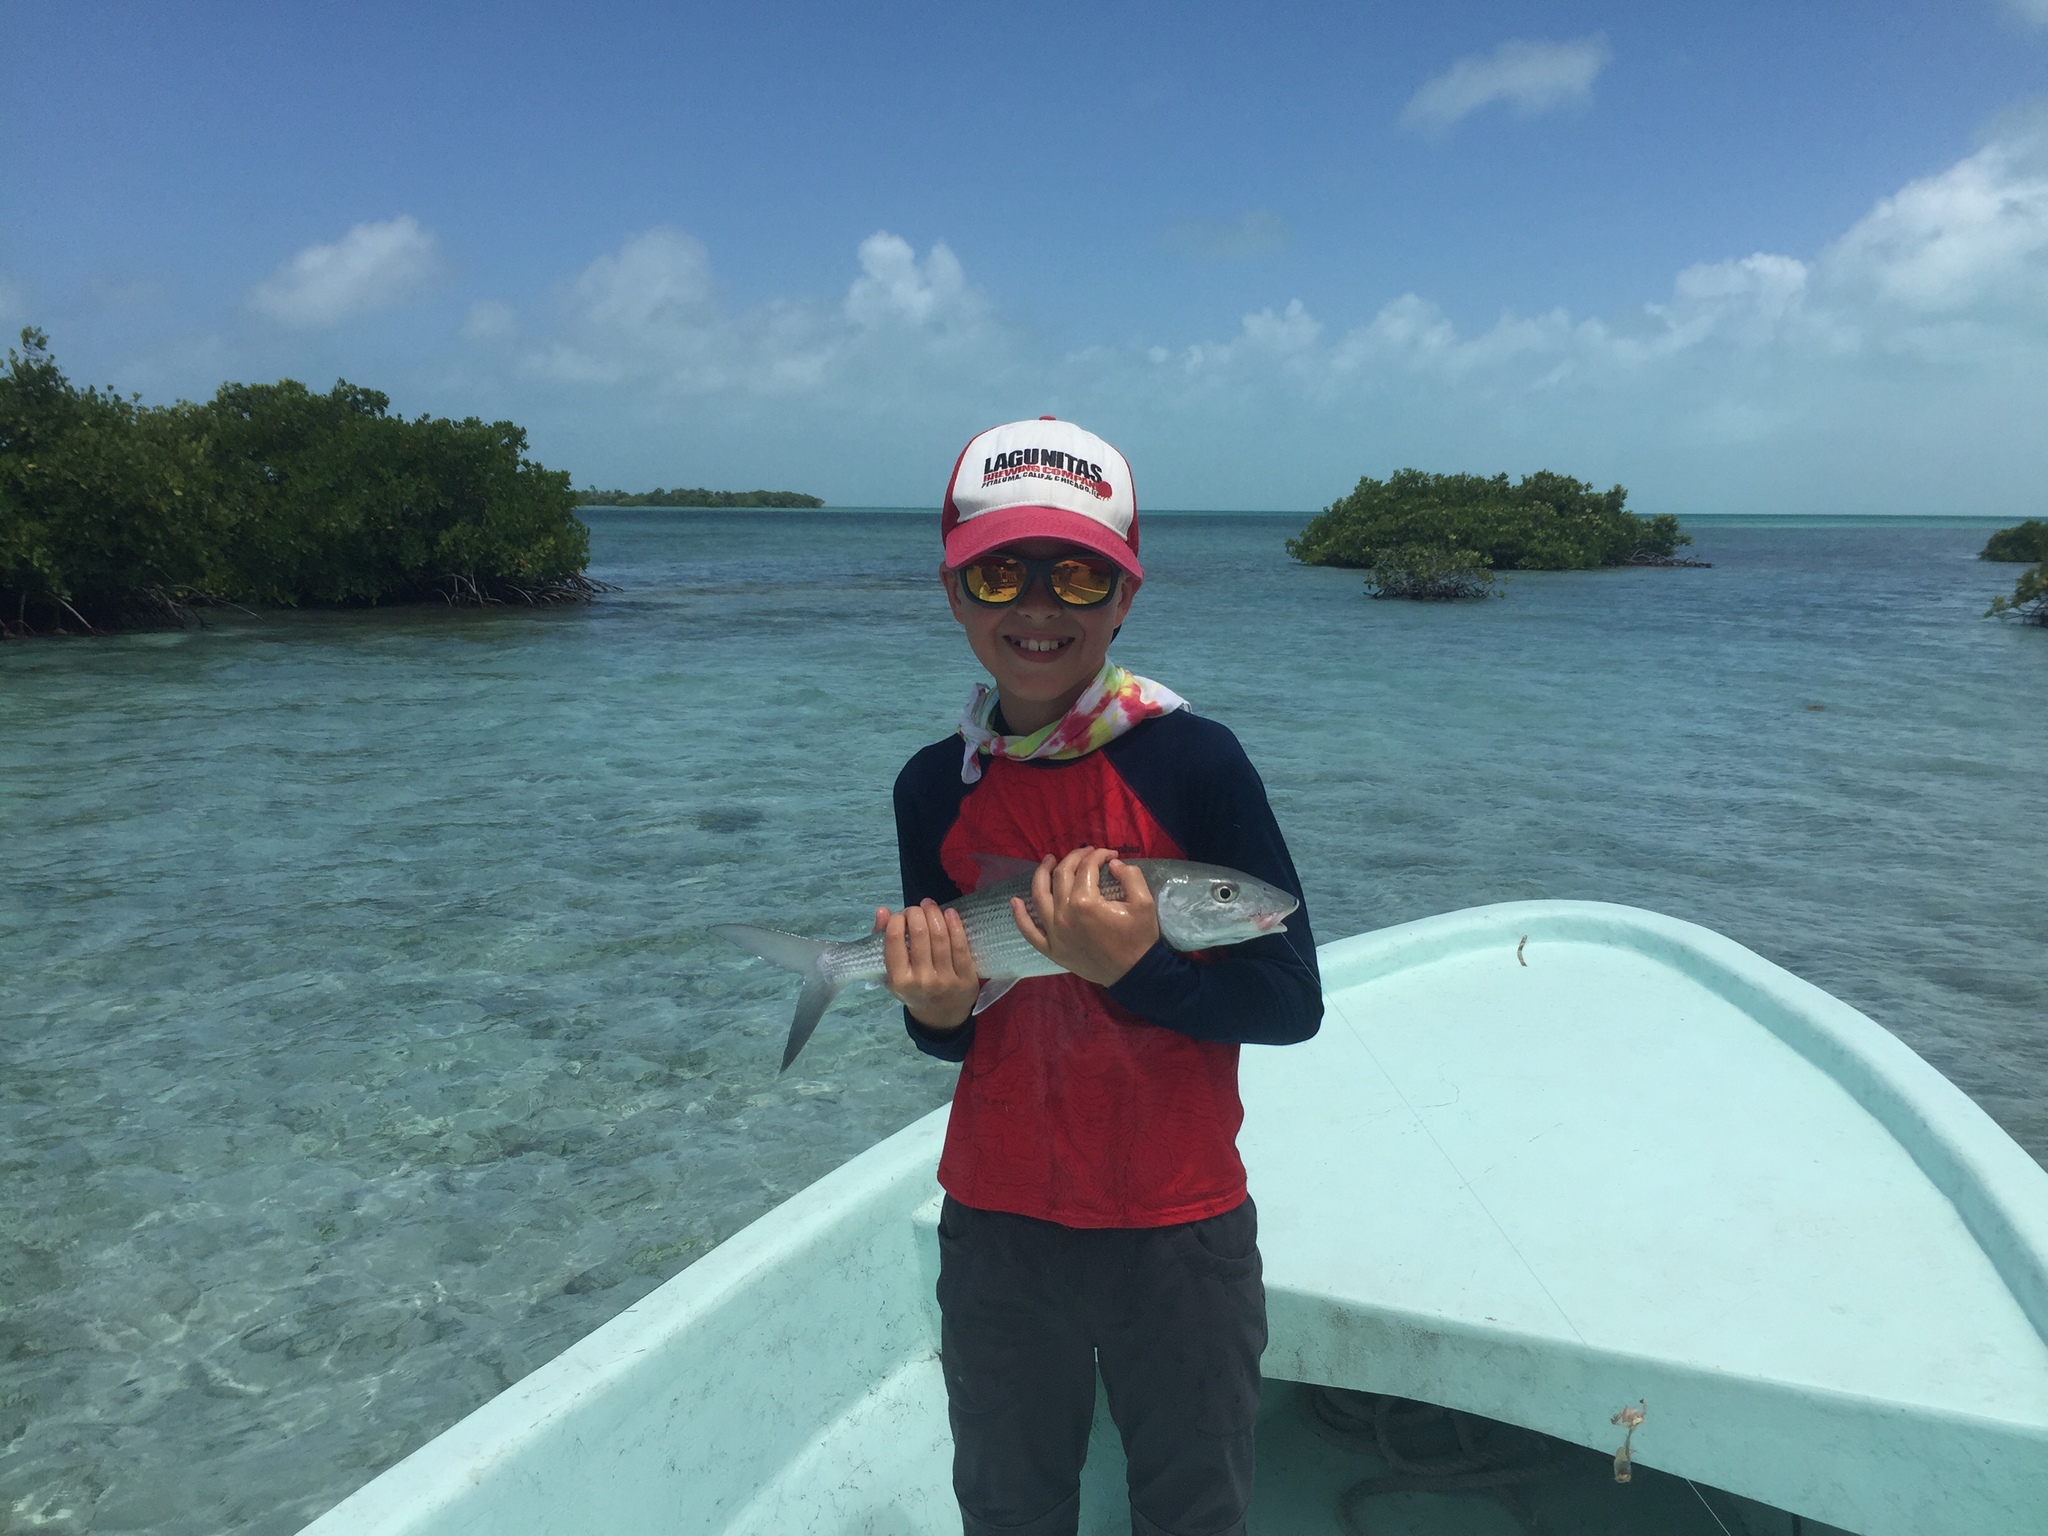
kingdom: Animalia
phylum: Chordata
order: Albuliformes
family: Albulidae
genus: Albula
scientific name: Albula vulpes
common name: Bonefish
